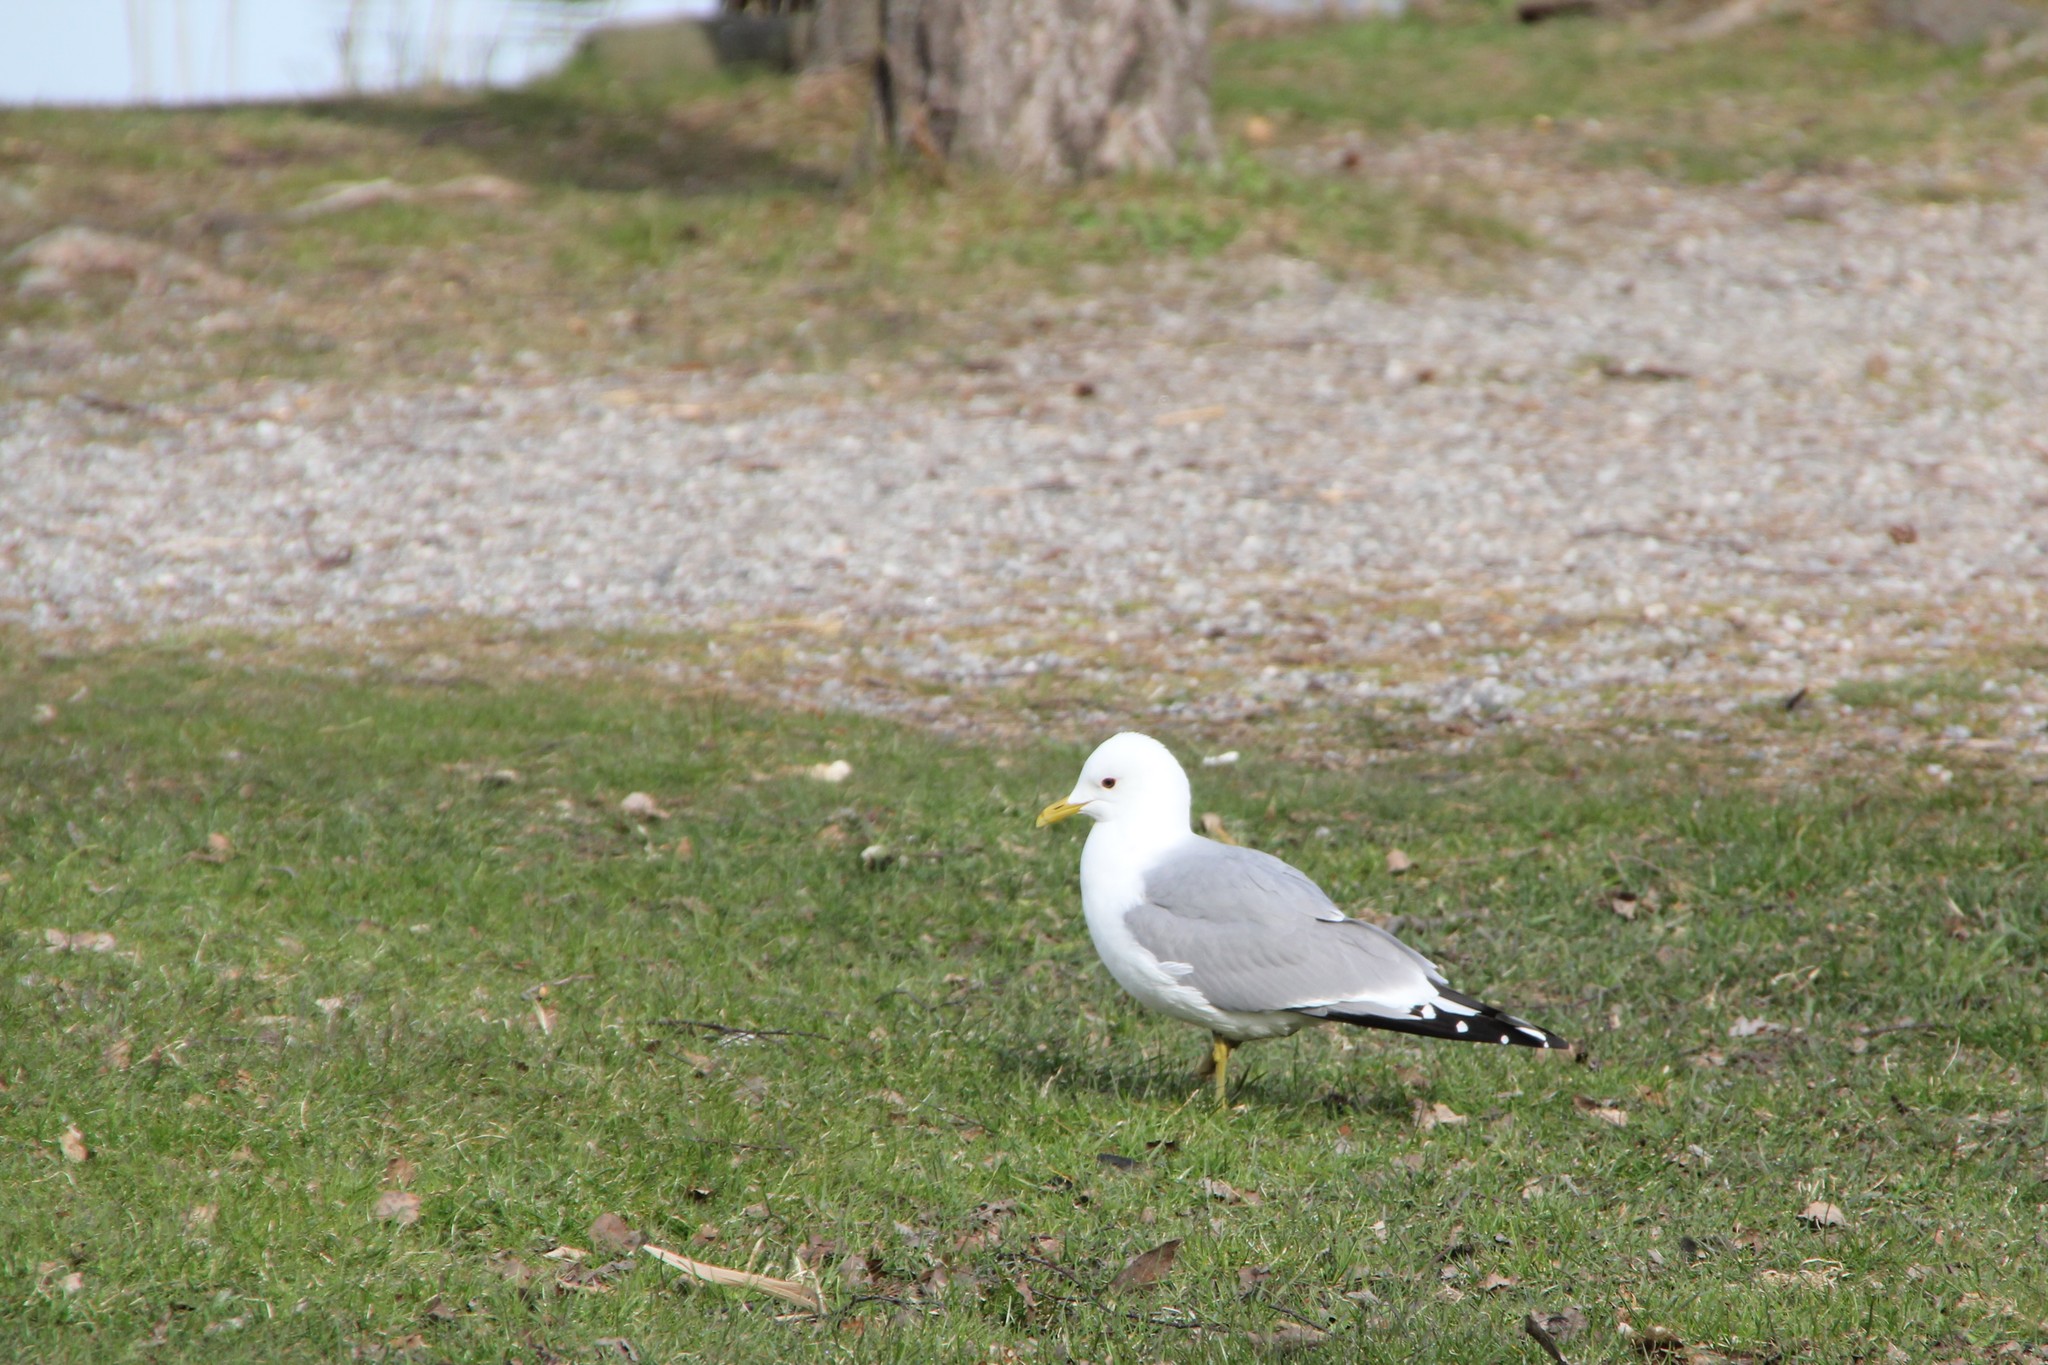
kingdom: Animalia
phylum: Chordata
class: Aves
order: Charadriiformes
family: Laridae
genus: Larus
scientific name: Larus canus
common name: Mew gull
